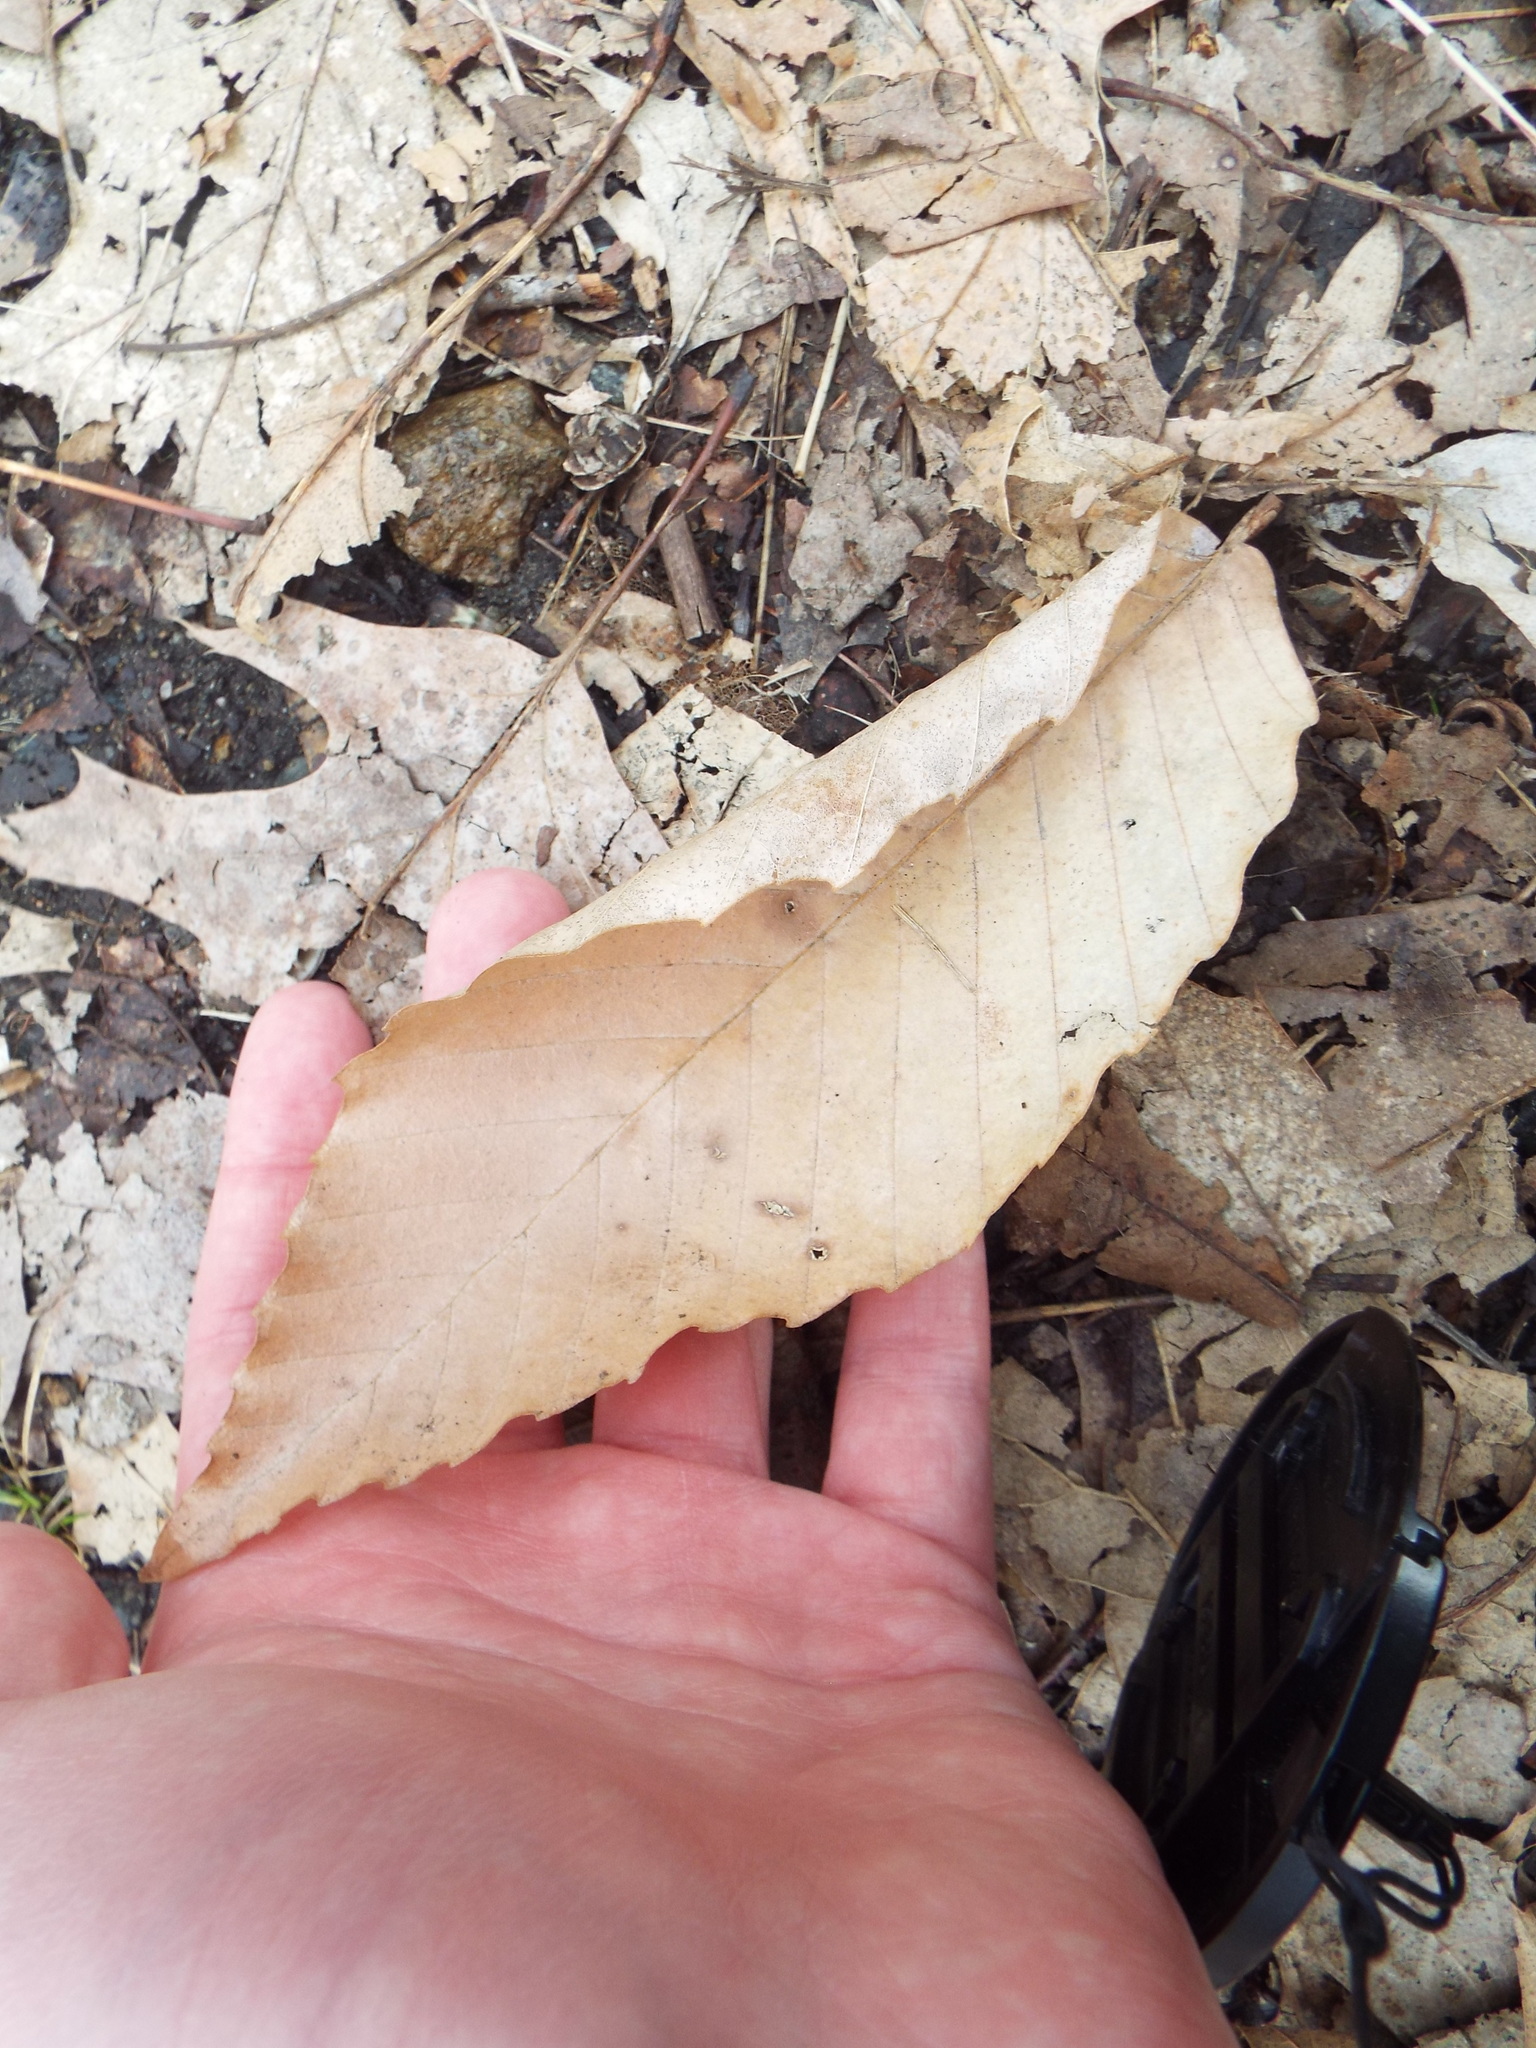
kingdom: Plantae
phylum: Tracheophyta
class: Magnoliopsida
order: Fagales
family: Fagaceae
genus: Fagus
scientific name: Fagus grandifolia
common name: American beech
